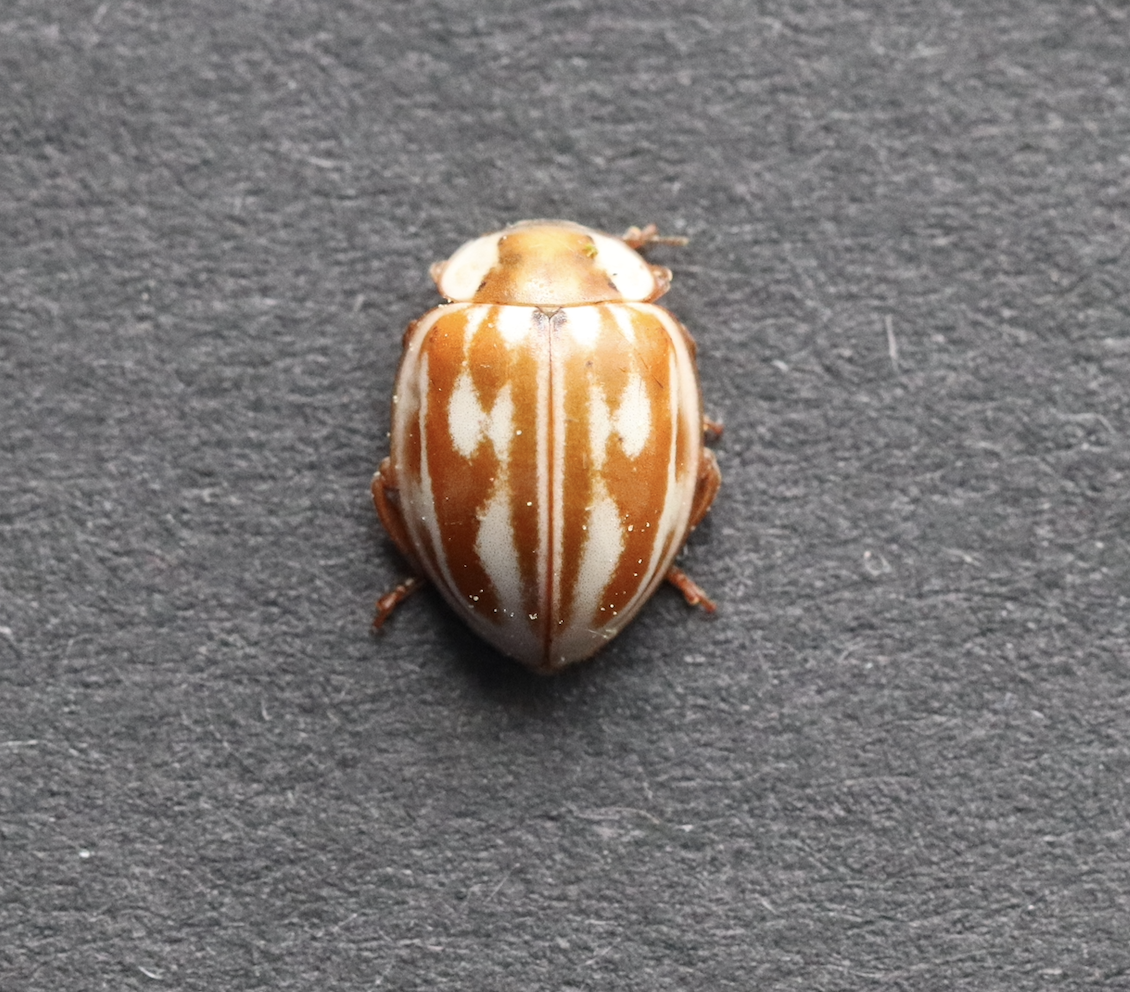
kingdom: Animalia
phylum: Arthropoda
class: Insecta
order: Coleoptera
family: Coccinellidae
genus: Myzia
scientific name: Myzia oblongoguttata
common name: Striped ladybird
